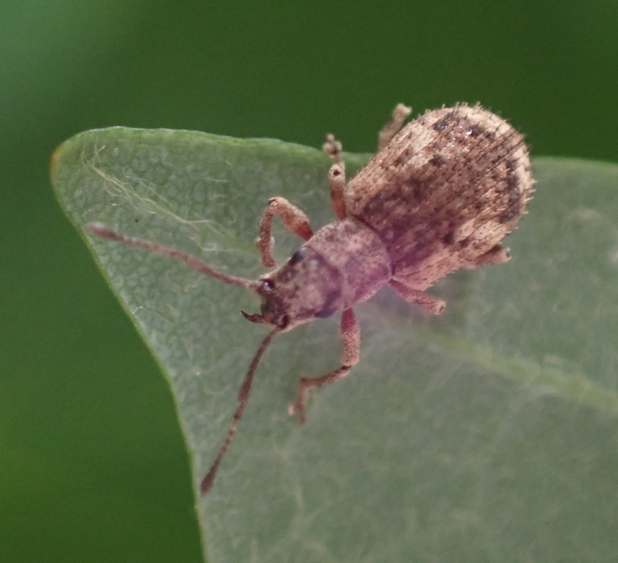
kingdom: Animalia
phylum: Arthropoda
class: Insecta
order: Coleoptera
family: Curculionidae
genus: Pseudoedophrys
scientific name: Pseudoedophrys hilleri
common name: Weevil
